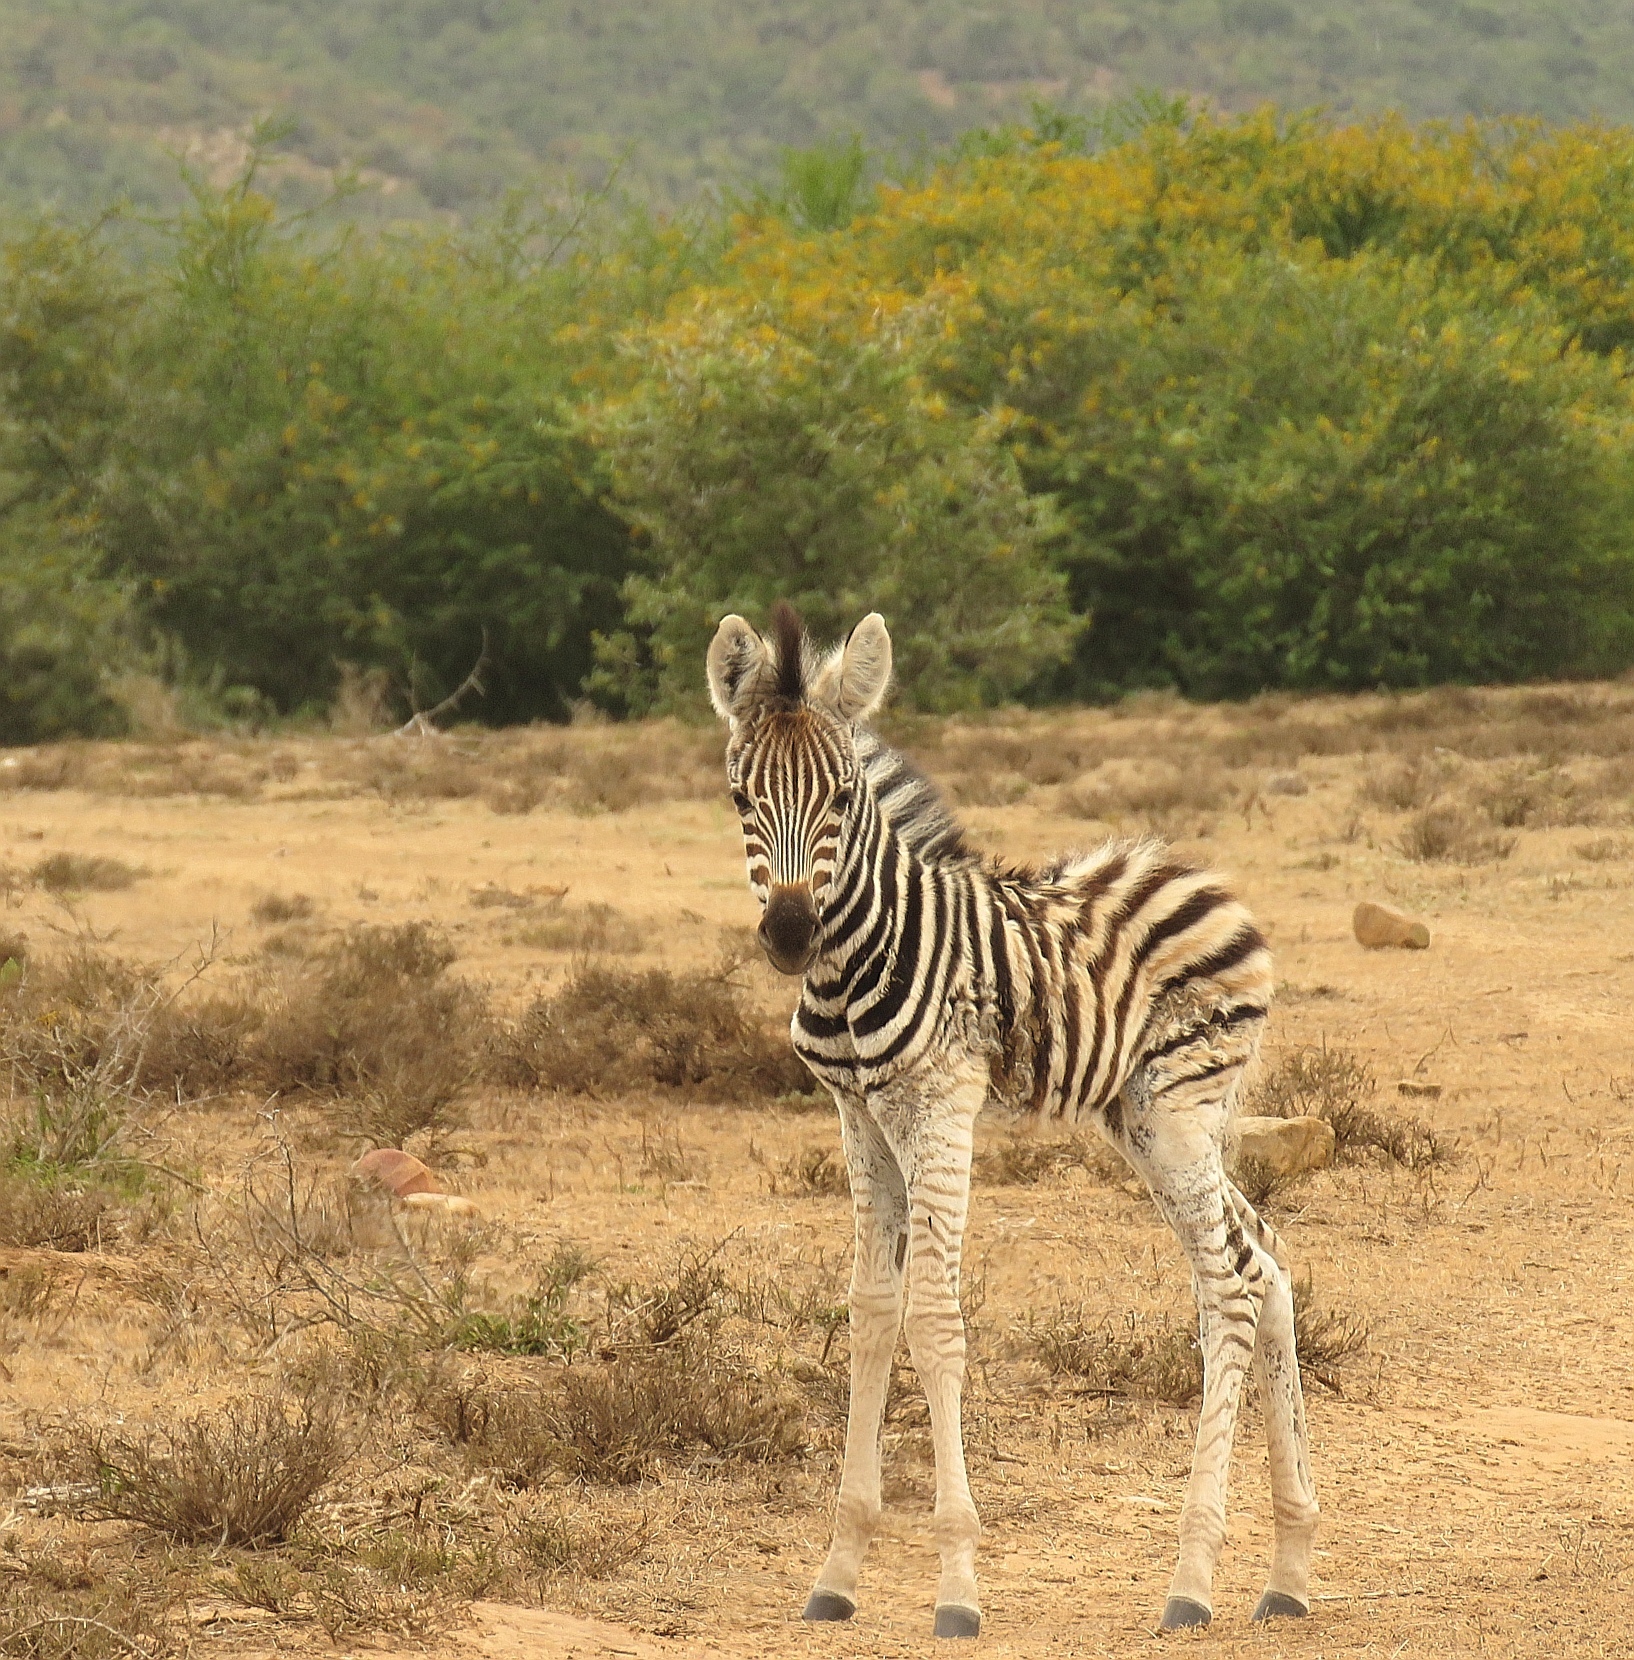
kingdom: Animalia
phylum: Chordata
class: Mammalia
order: Perissodactyla
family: Equidae
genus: Equus
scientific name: Equus quagga
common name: Plains zebra
